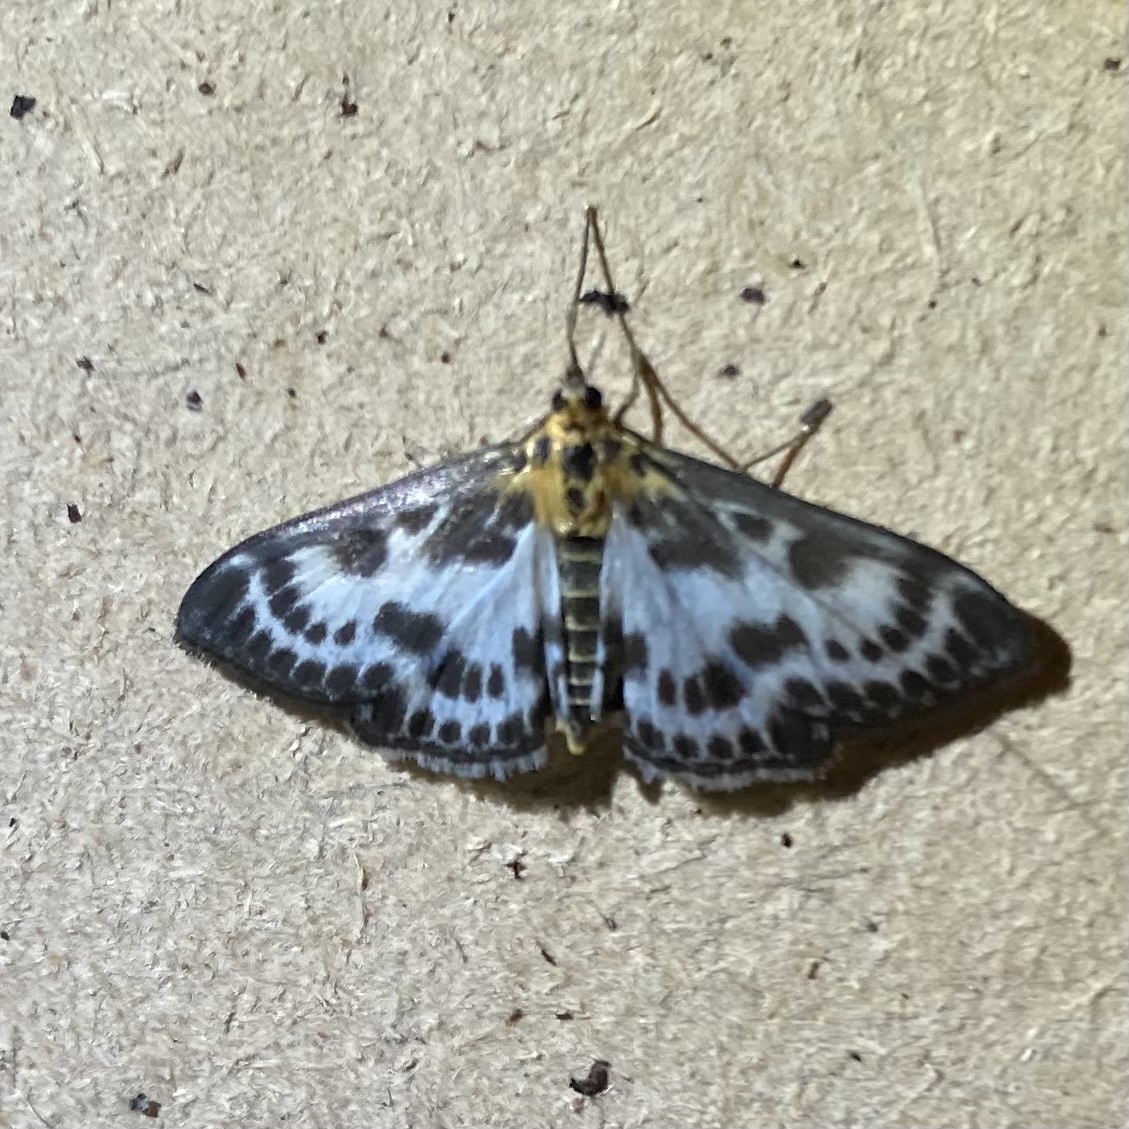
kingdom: Animalia
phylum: Arthropoda
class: Insecta
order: Lepidoptera
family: Crambidae
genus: Anania
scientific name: Anania hortulata
